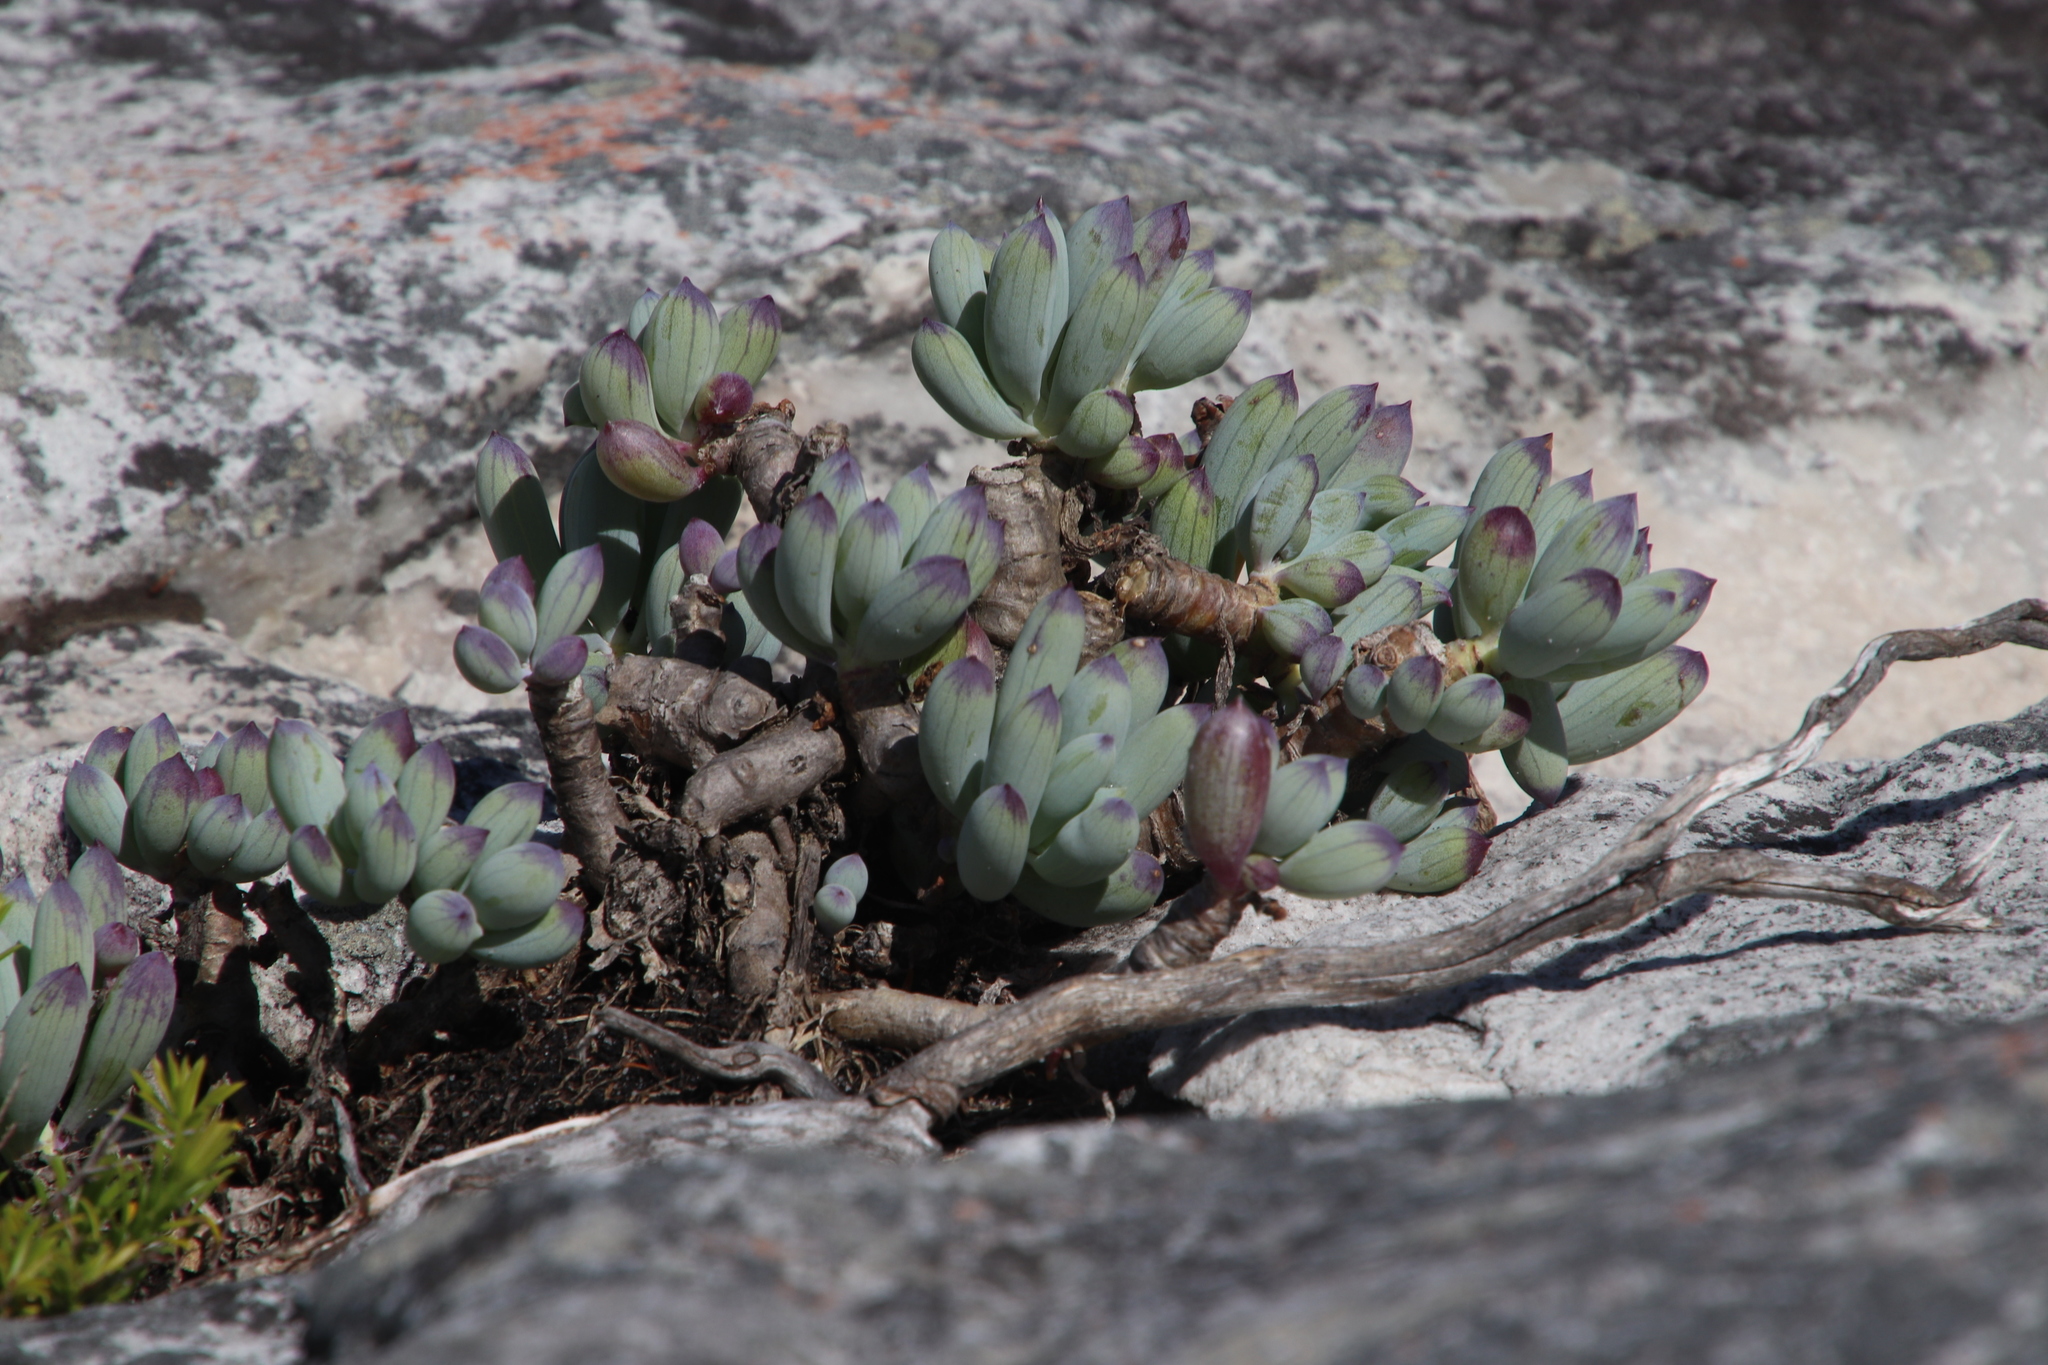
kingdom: Plantae
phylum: Tracheophyta
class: Magnoliopsida
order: Asterales
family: Asteraceae
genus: Curio
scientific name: Curio crassulifolius
